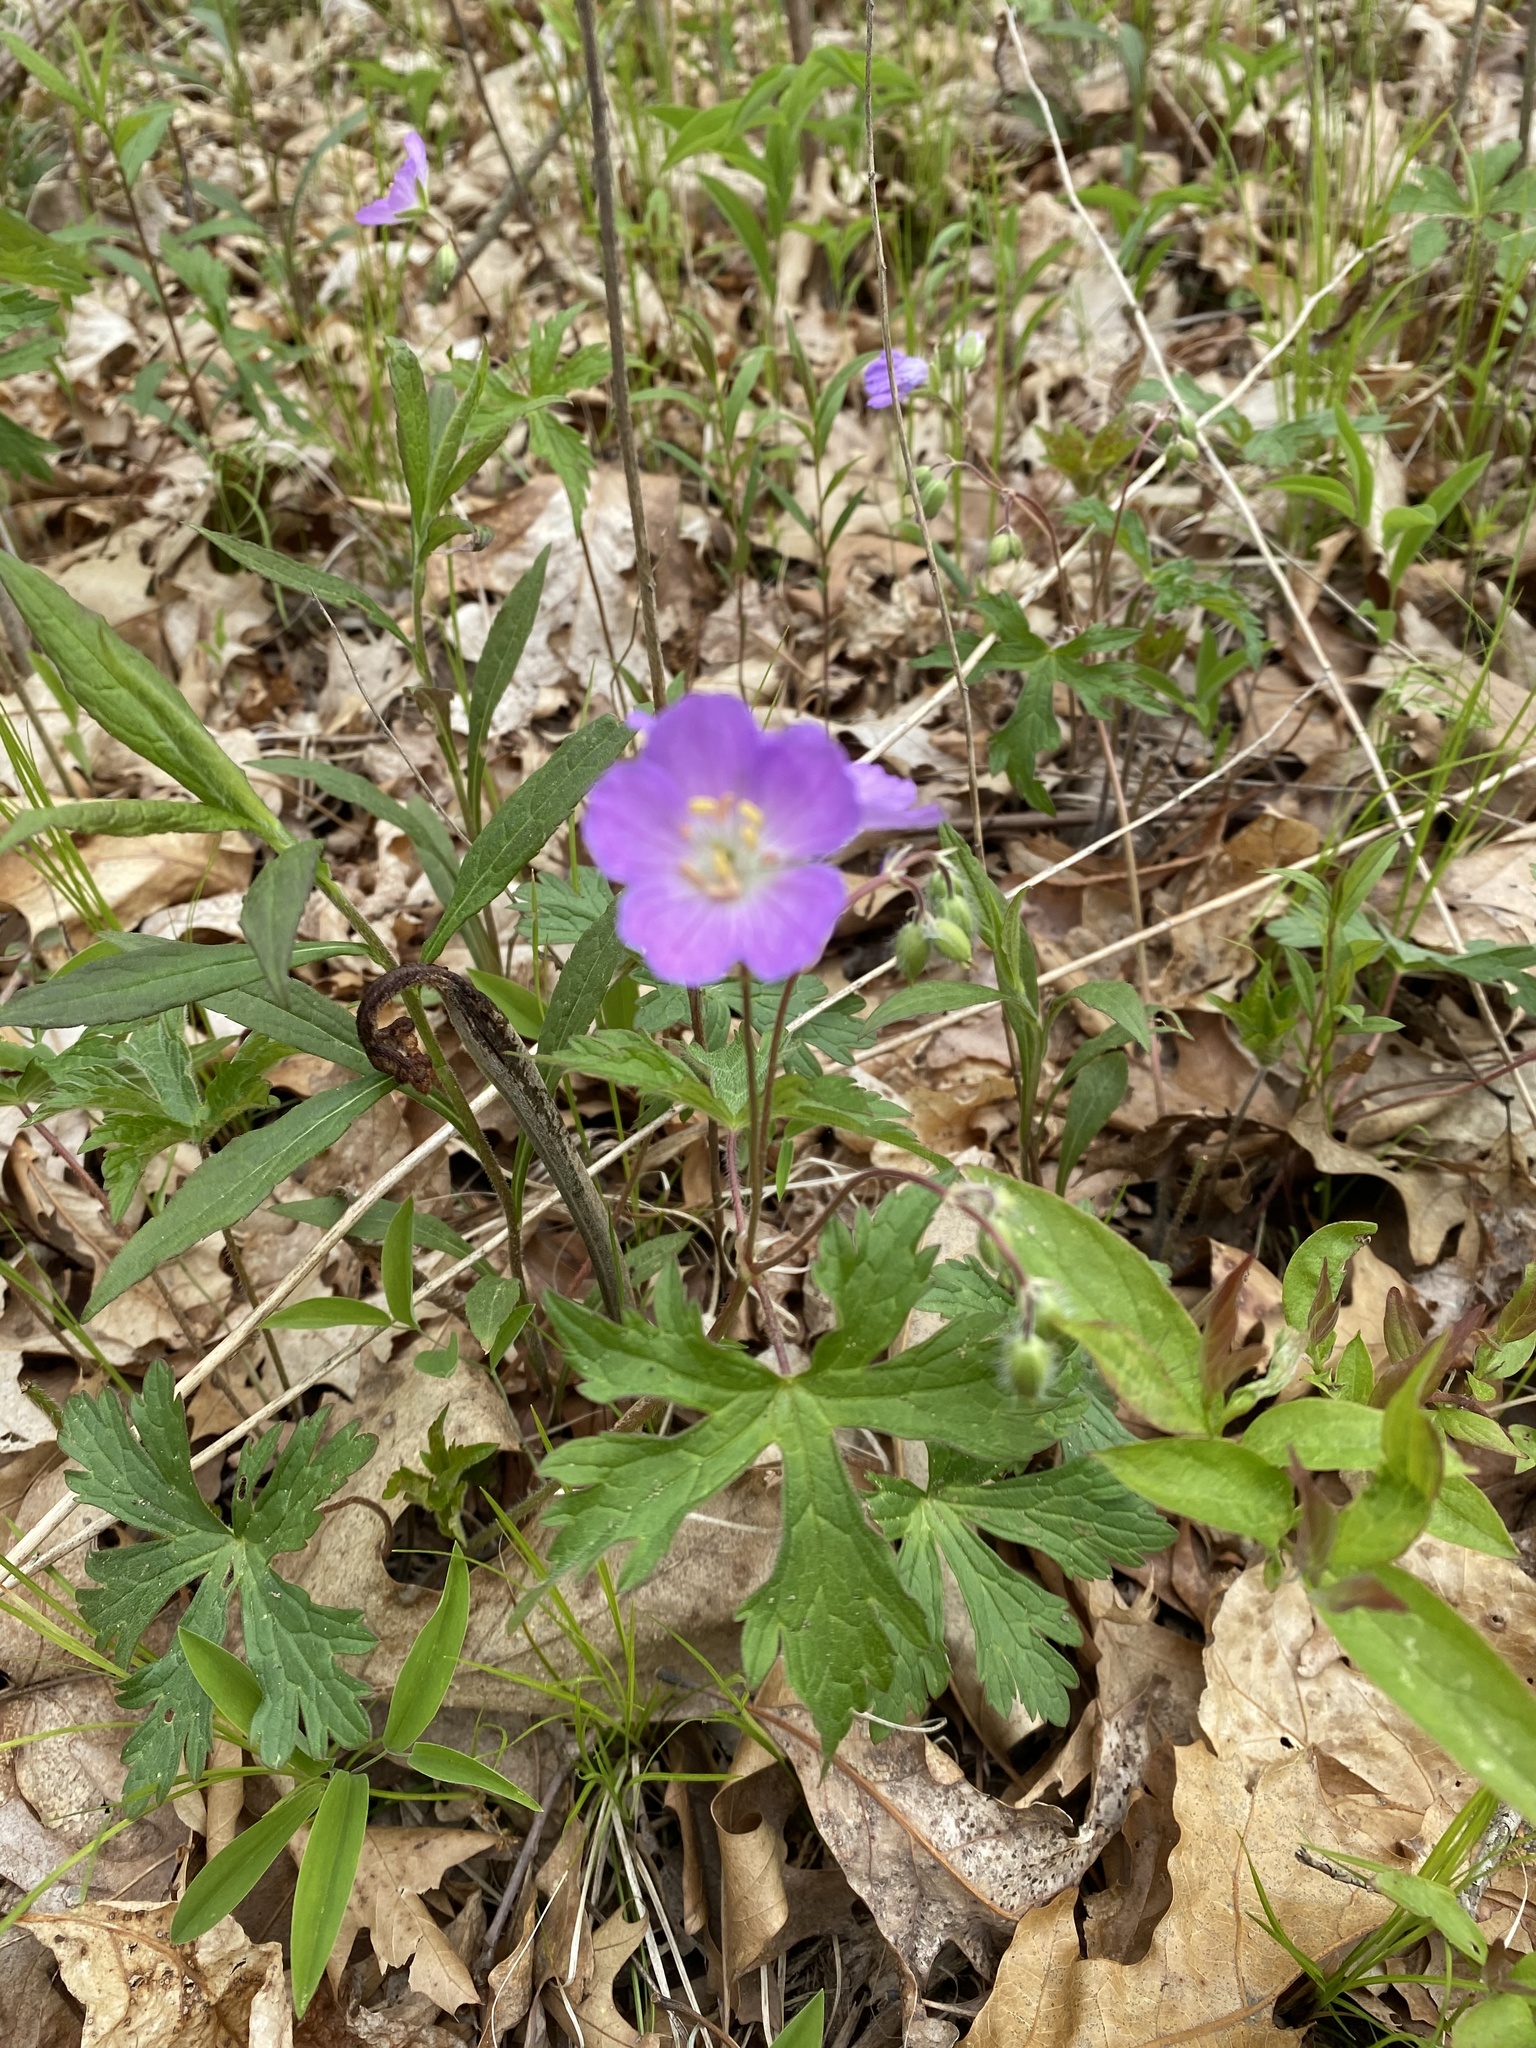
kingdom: Plantae
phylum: Tracheophyta
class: Magnoliopsida
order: Geraniales
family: Geraniaceae
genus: Geranium
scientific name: Geranium maculatum
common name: Spotted geranium
